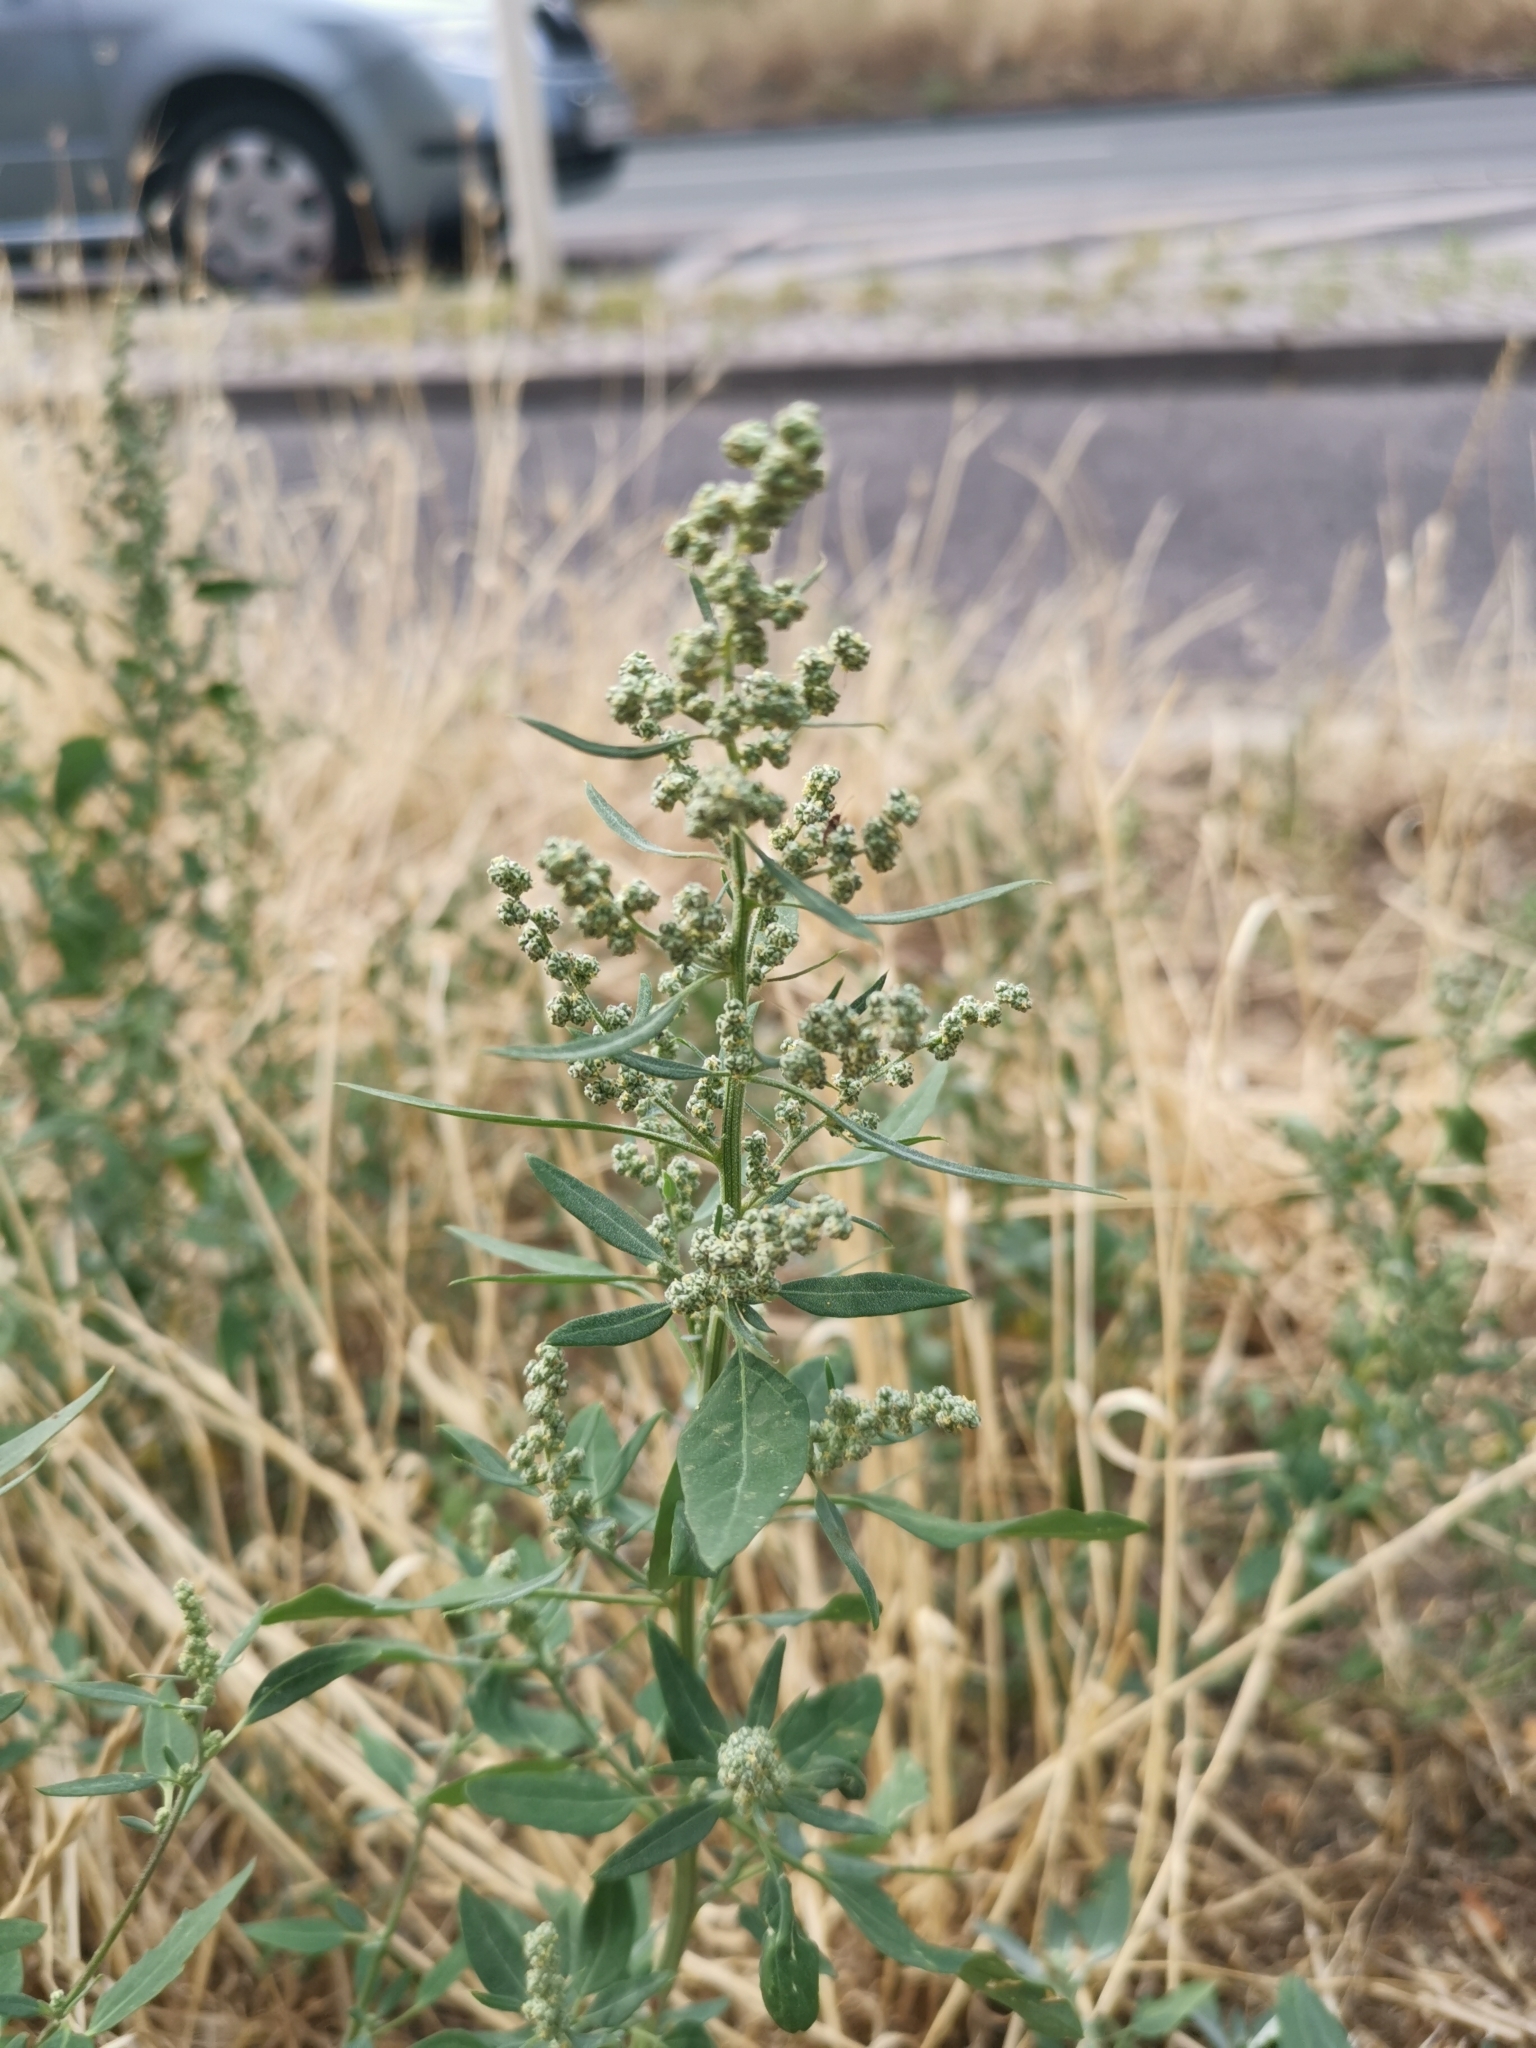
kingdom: Plantae
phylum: Tracheophyta
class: Magnoliopsida
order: Caryophyllales
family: Amaranthaceae
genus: Chenopodium
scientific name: Chenopodium album
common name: Fat-hen
